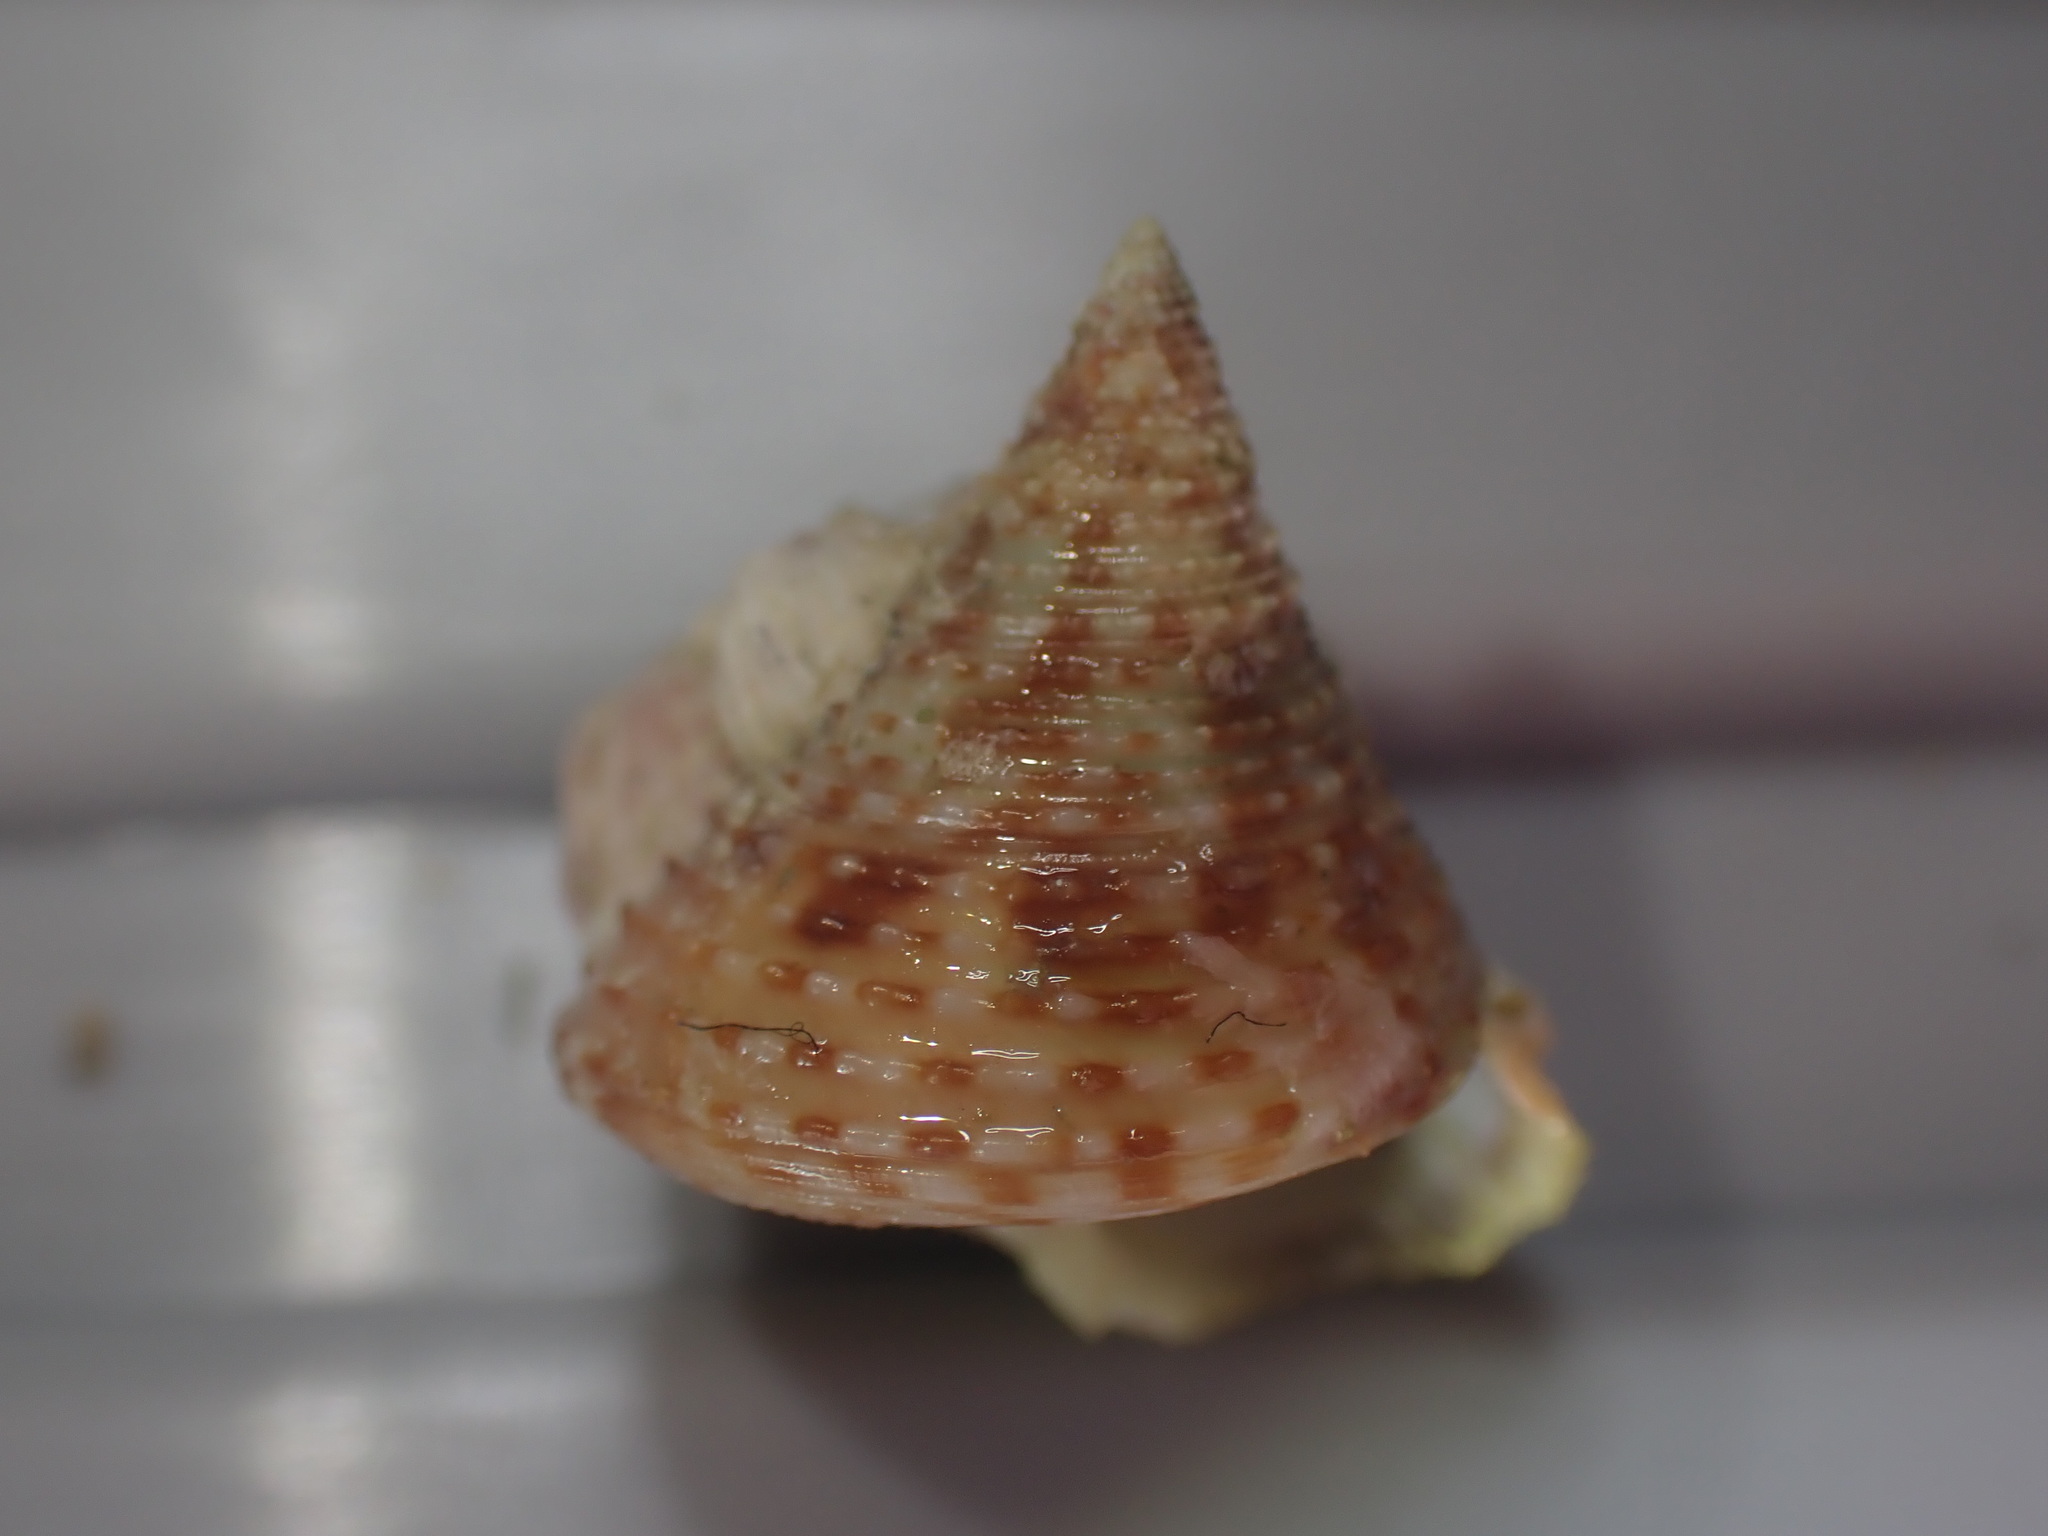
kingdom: Animalia
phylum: Mollusca
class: Gastropoda
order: Trochida
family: Calliostomatidae
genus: Maurea
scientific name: Maurea pellucida
